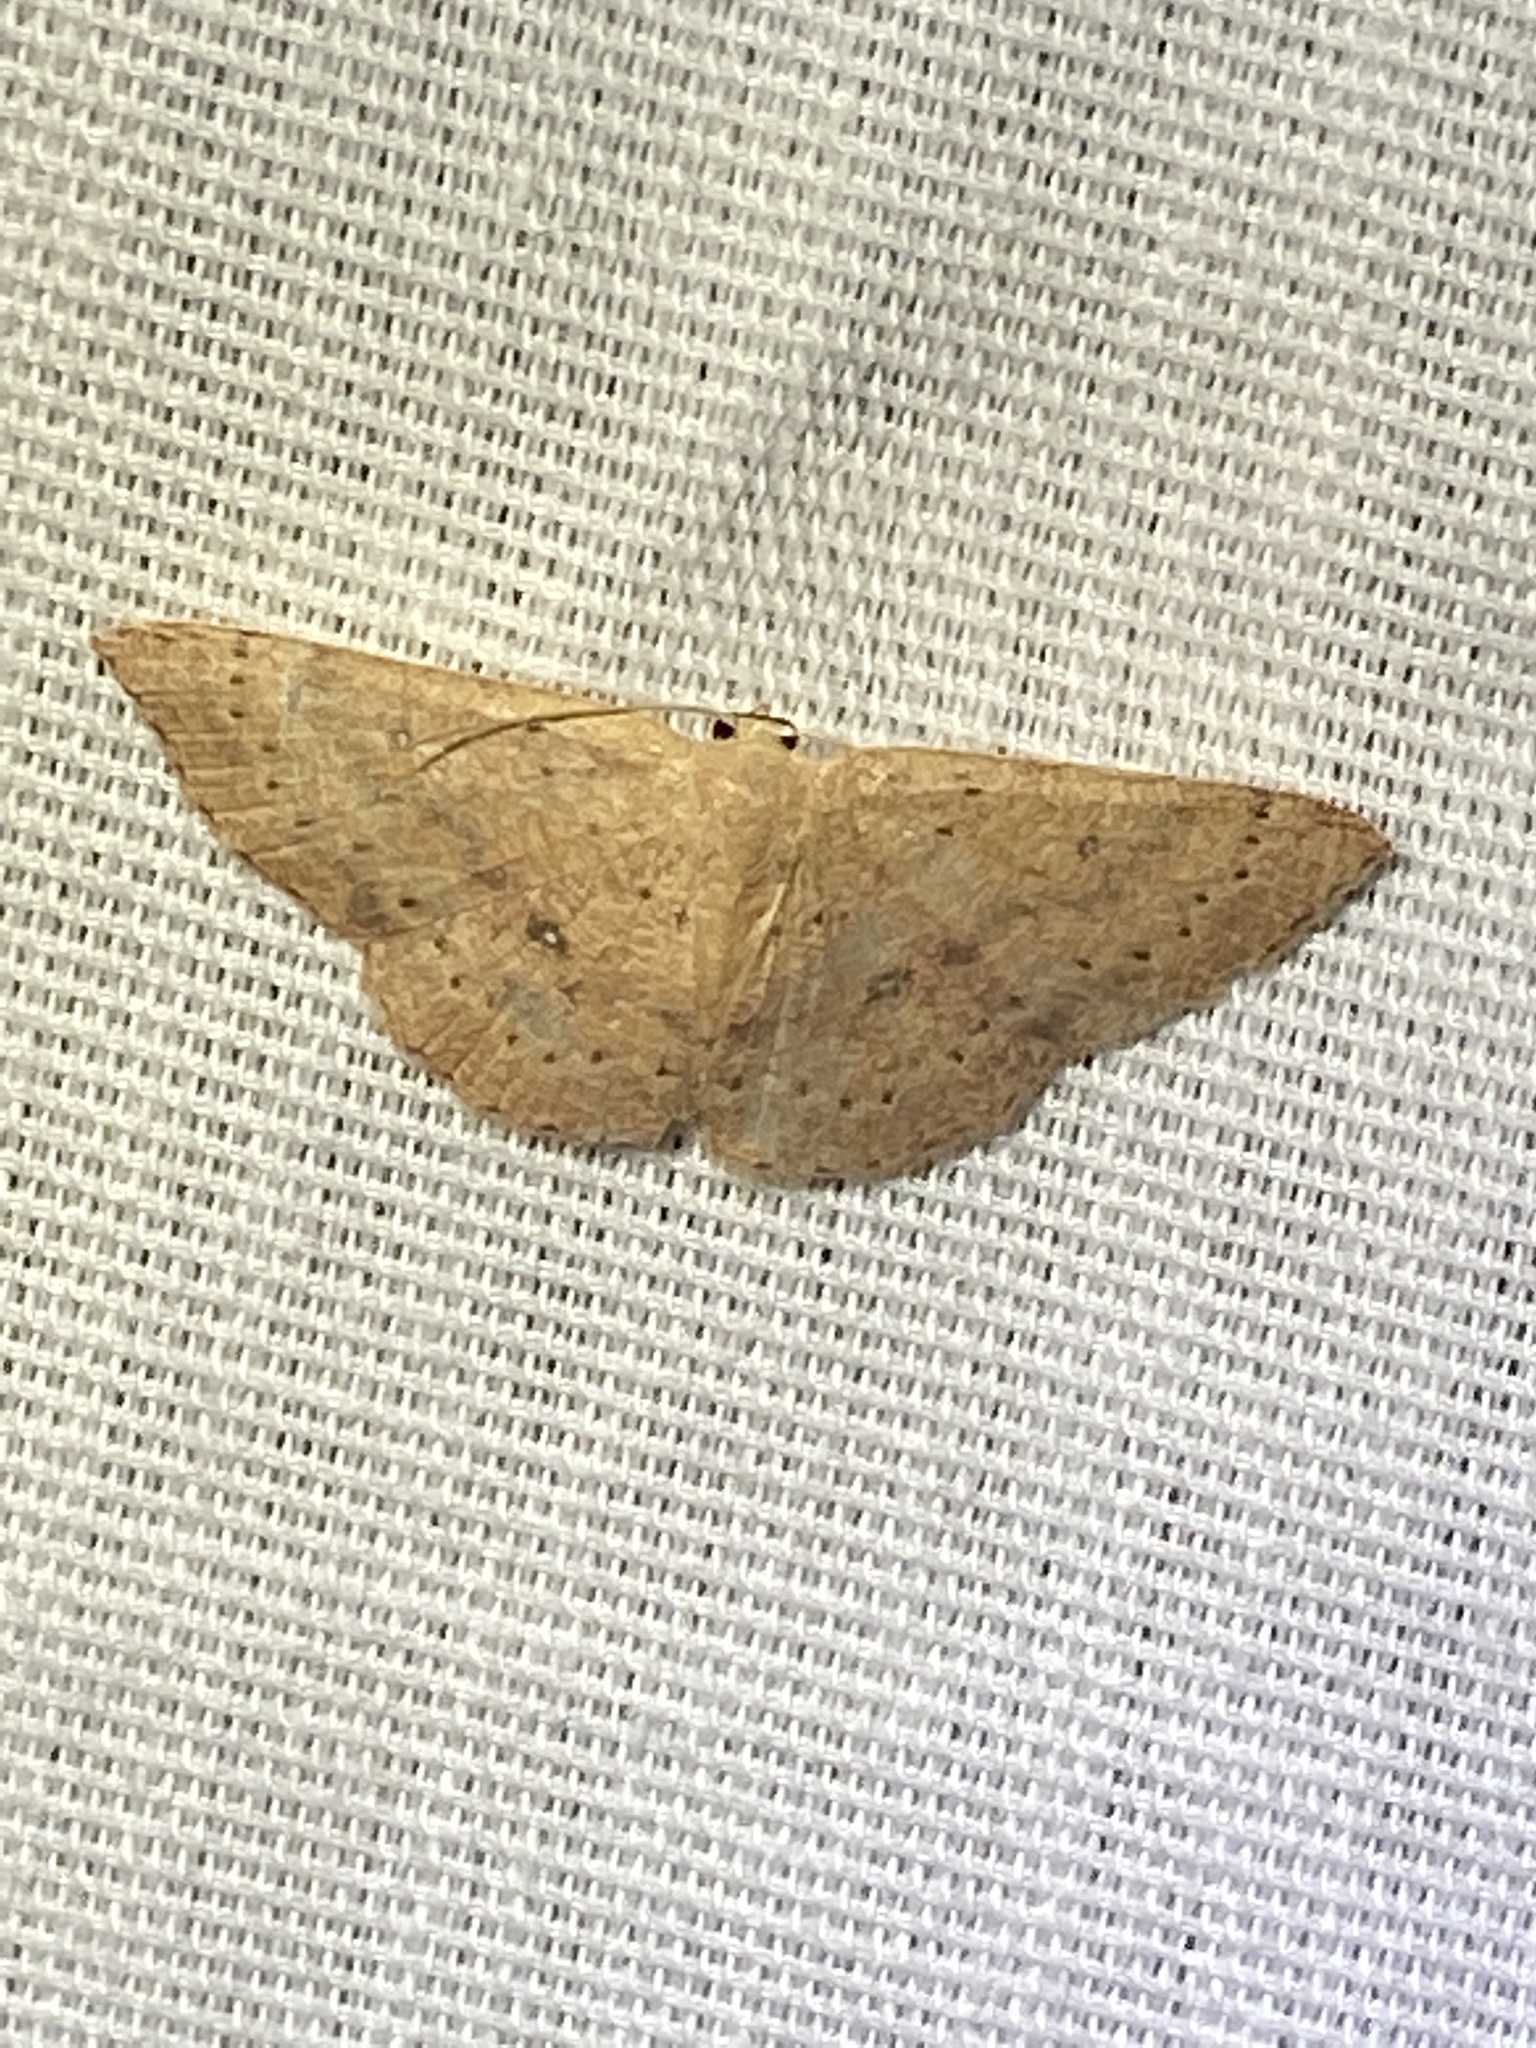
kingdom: Animalia
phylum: Arthropoda
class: Insecta
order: Lepidoptera
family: Geometridae
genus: Cyclophora
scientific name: Cyclophora packardi
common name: Packard's wave
